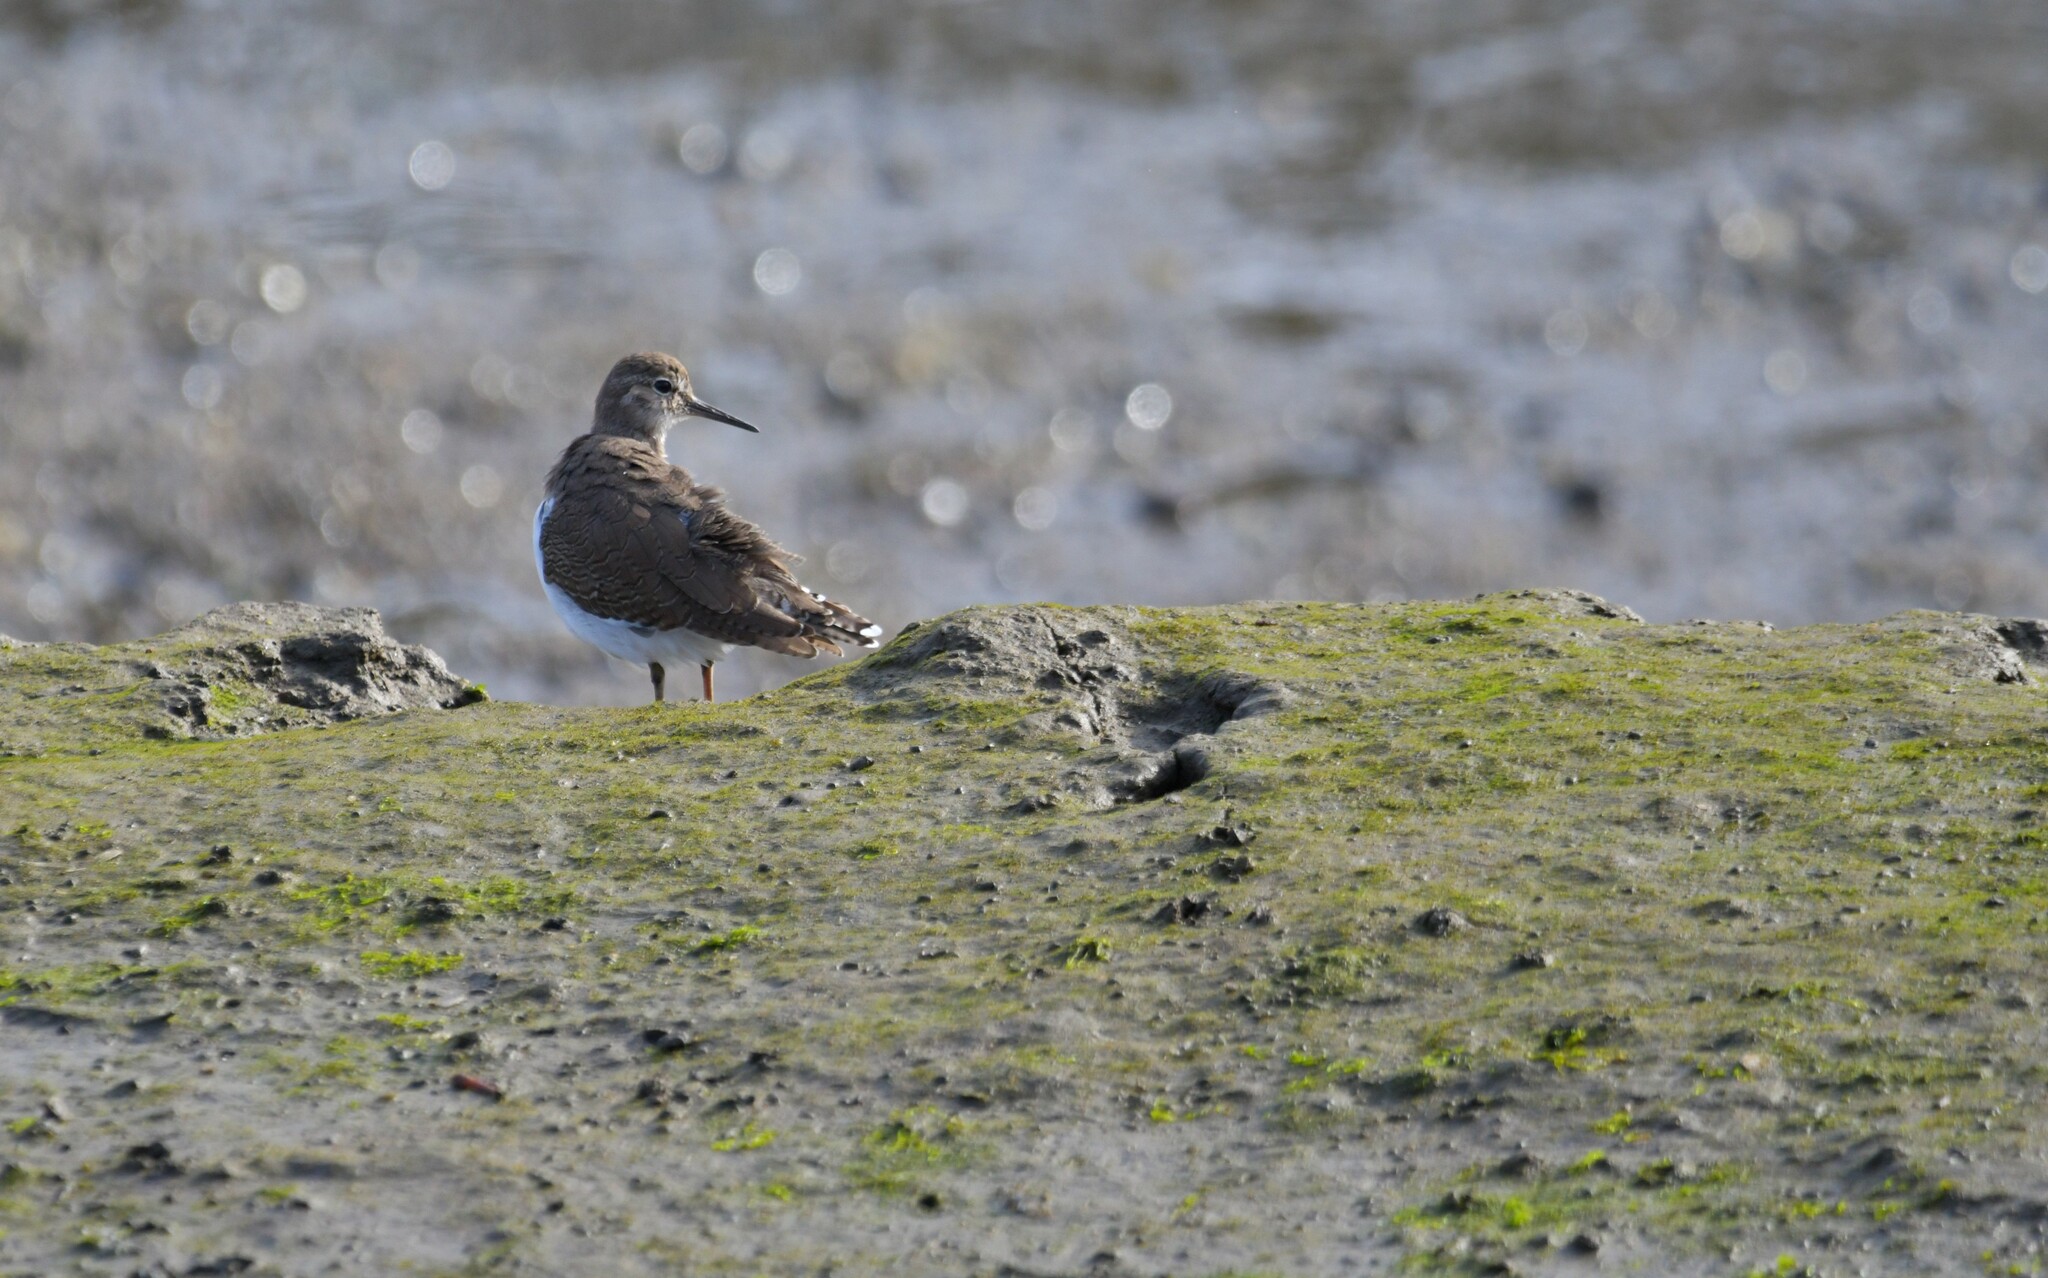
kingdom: Animalia
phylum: Chordata
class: Aves
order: Charadriiformes
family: Scolopacidae
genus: Actitis
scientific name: Actitis hypoleucos
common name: Common sandpiper
